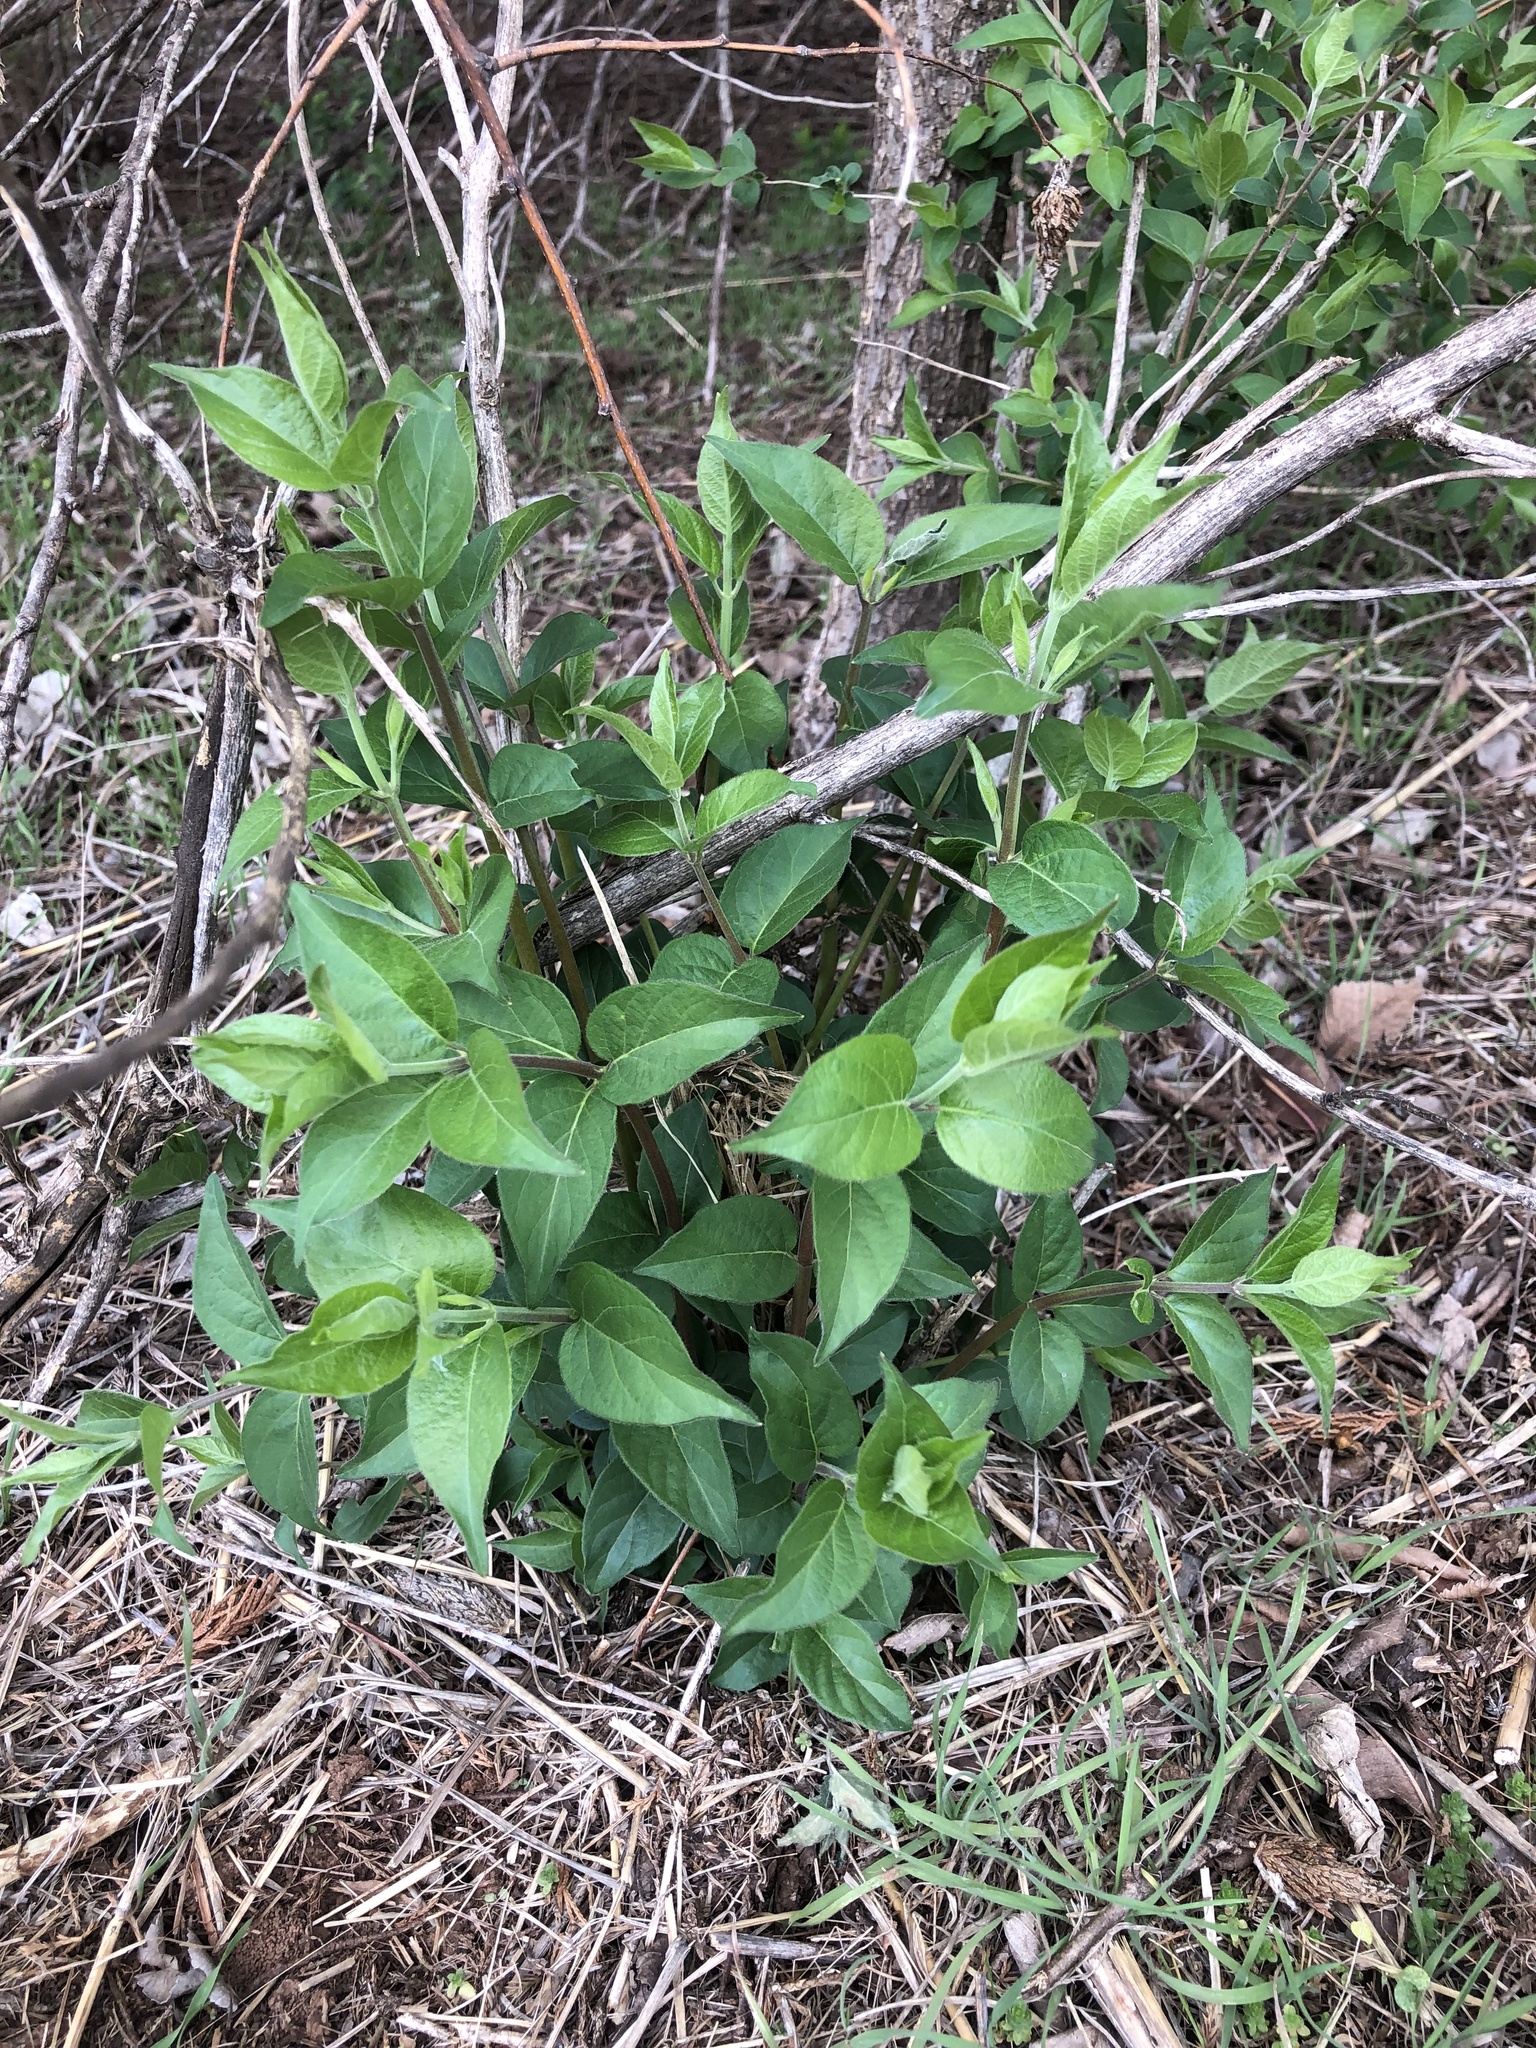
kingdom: Plantae
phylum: Tracheophyta
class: Magnoliopsida
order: Dipsacales
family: Caprifoliaceae
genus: Lonicera
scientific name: Lonicera maackii
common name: Amur honeysuckle
